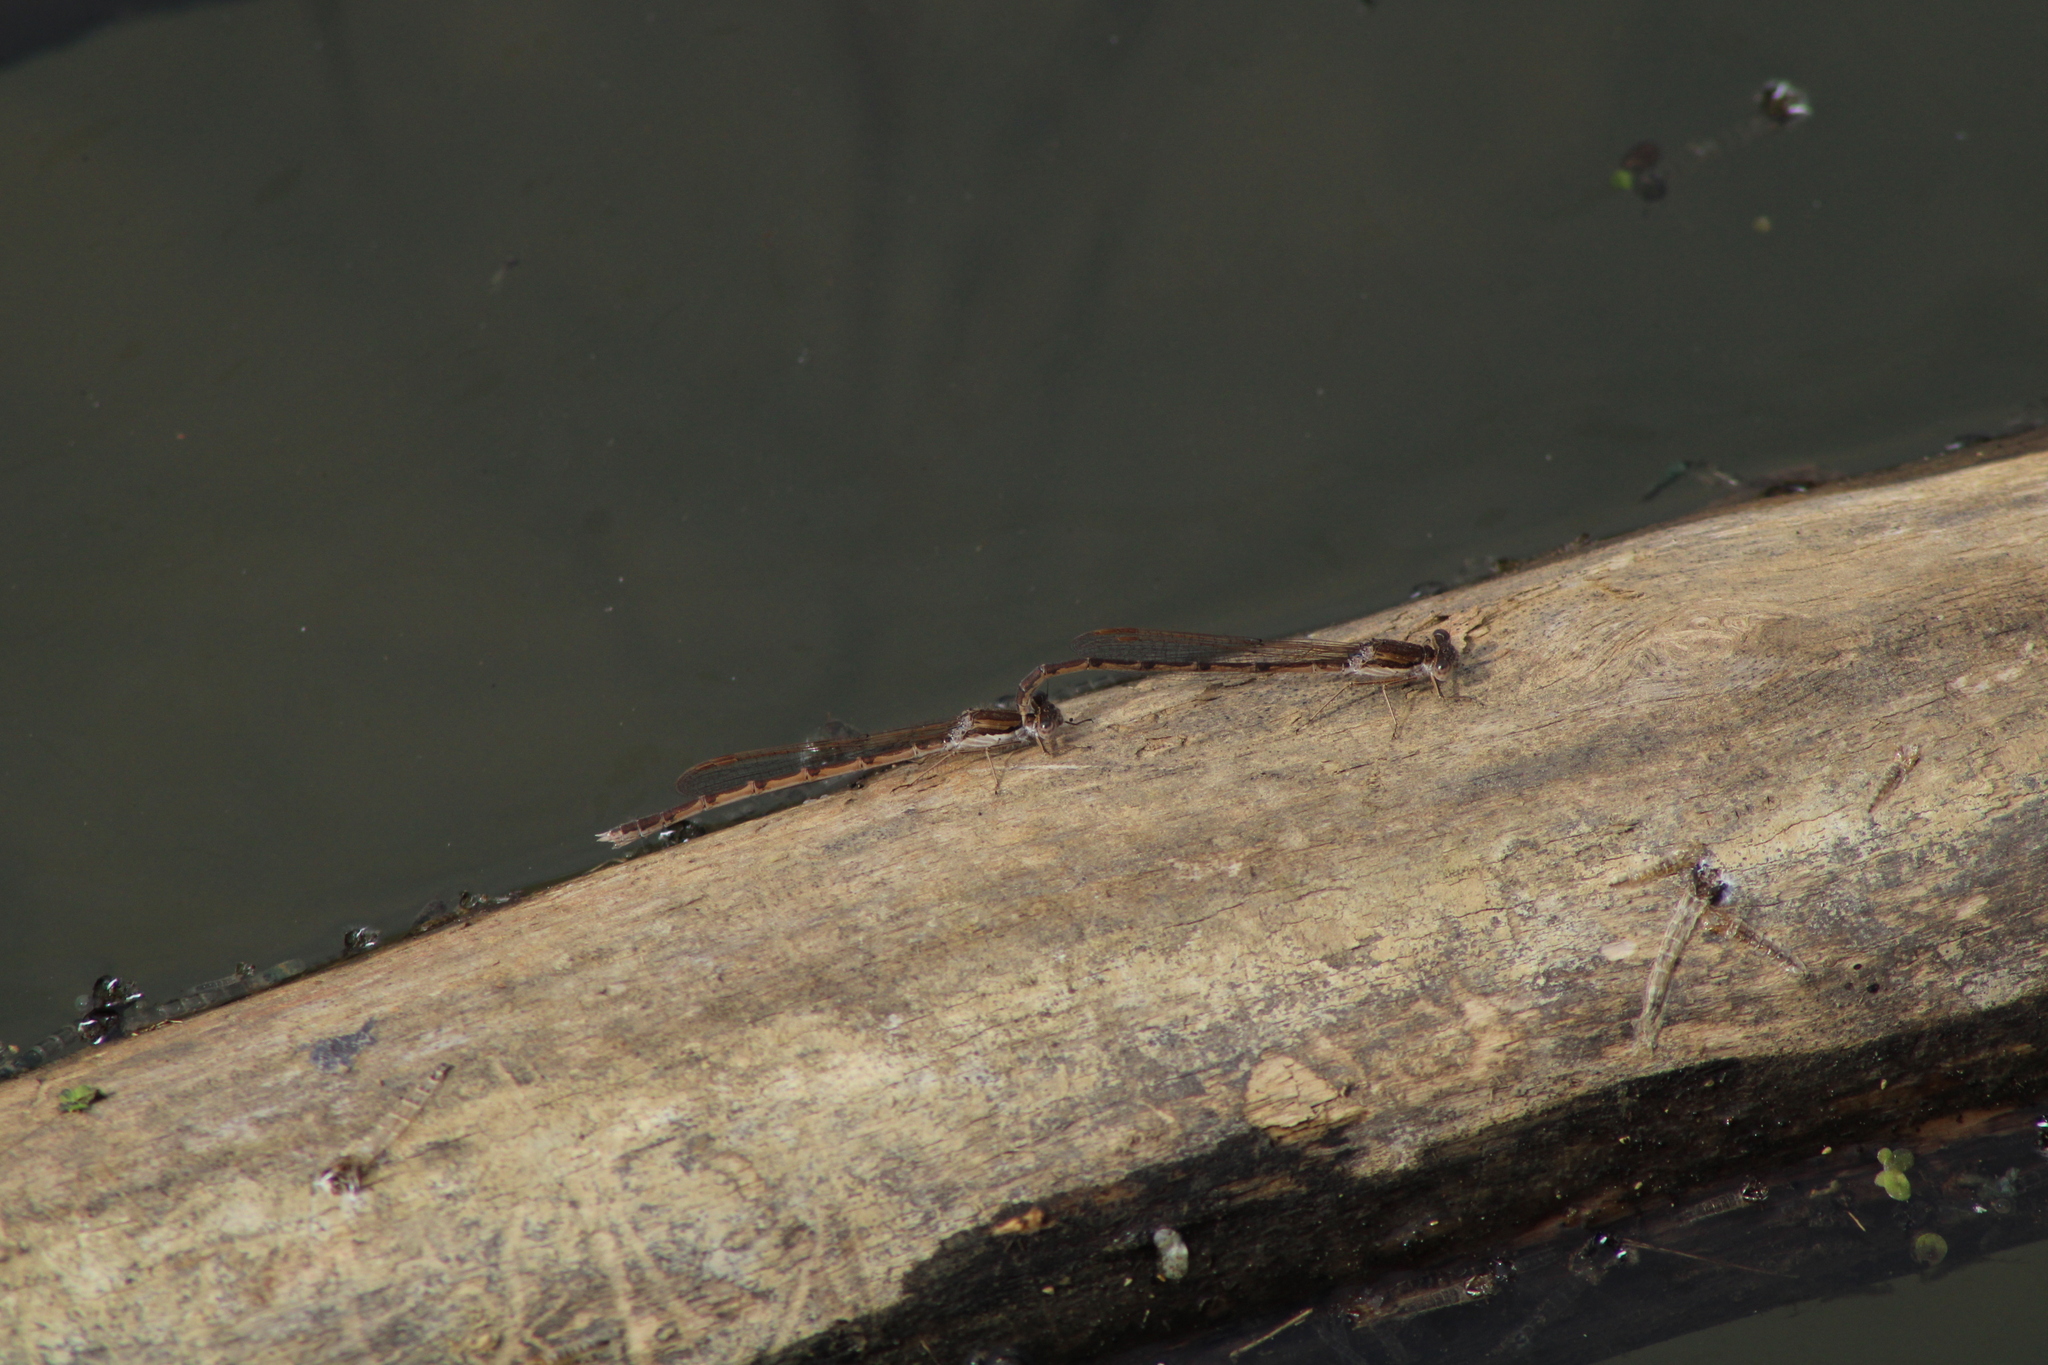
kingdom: Animalia
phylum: Arthropoda
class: Insecta
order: Odonata
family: Lestidae
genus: Sympecma
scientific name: Sympecma fusca
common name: Common winter damsel
